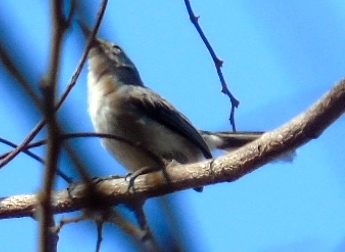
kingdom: Animalia
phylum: Chordata
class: Aves
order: Passeriformes
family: Polioptilidae
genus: Polioptila
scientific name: Polioptila nigriceps
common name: Black-capped gnatcatcher
